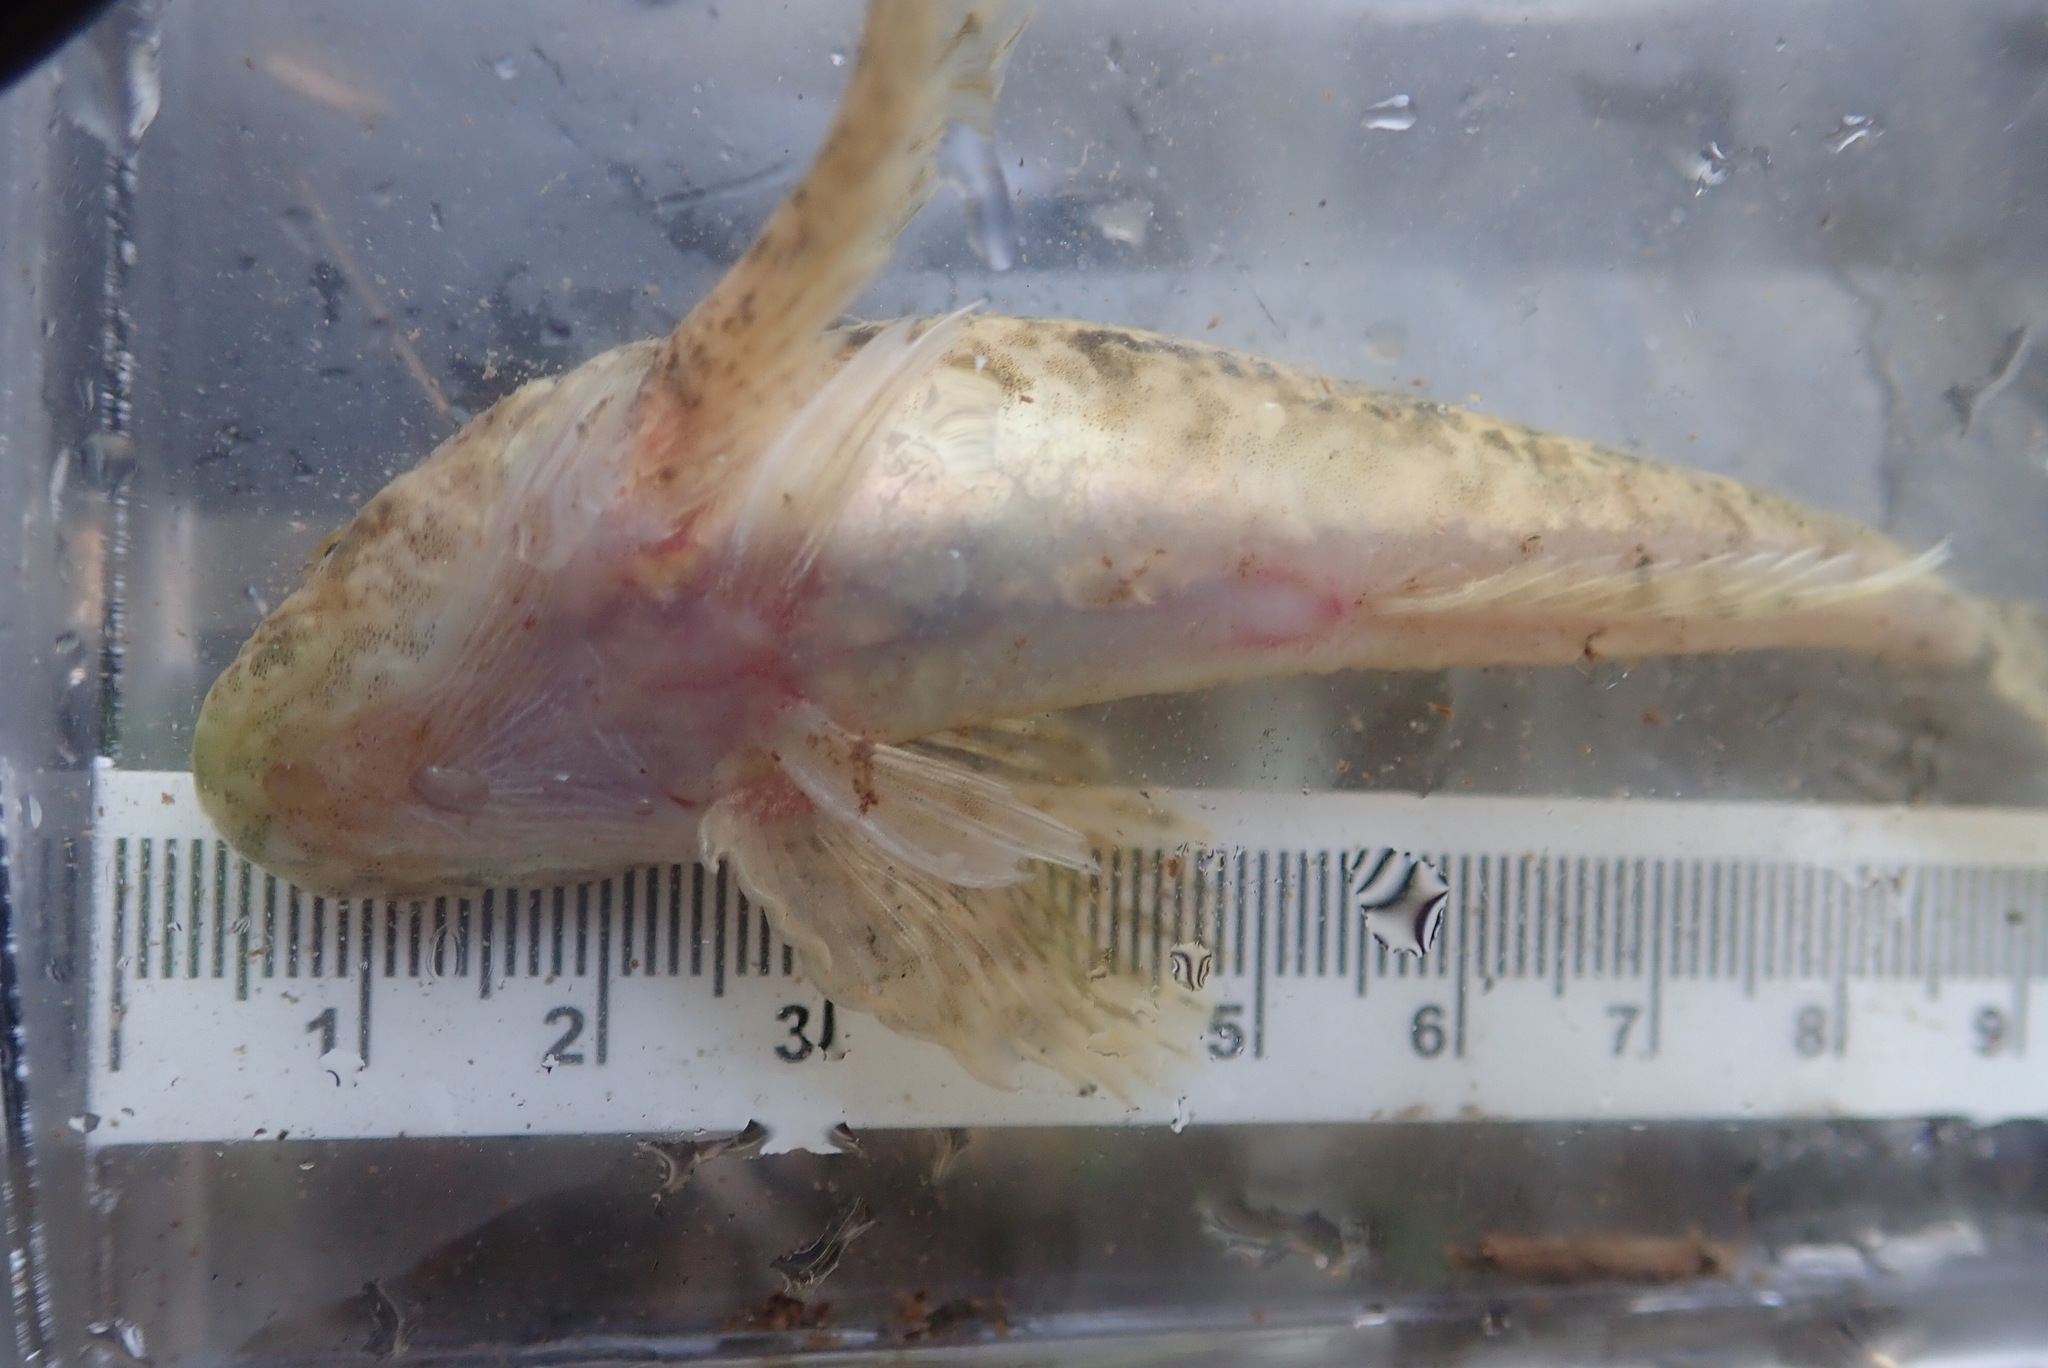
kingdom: Animalia
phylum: Chordata
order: Scorpaeniformes
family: Cottidae
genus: Cottus
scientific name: Cottus bairdii
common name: Mottled sculpin
